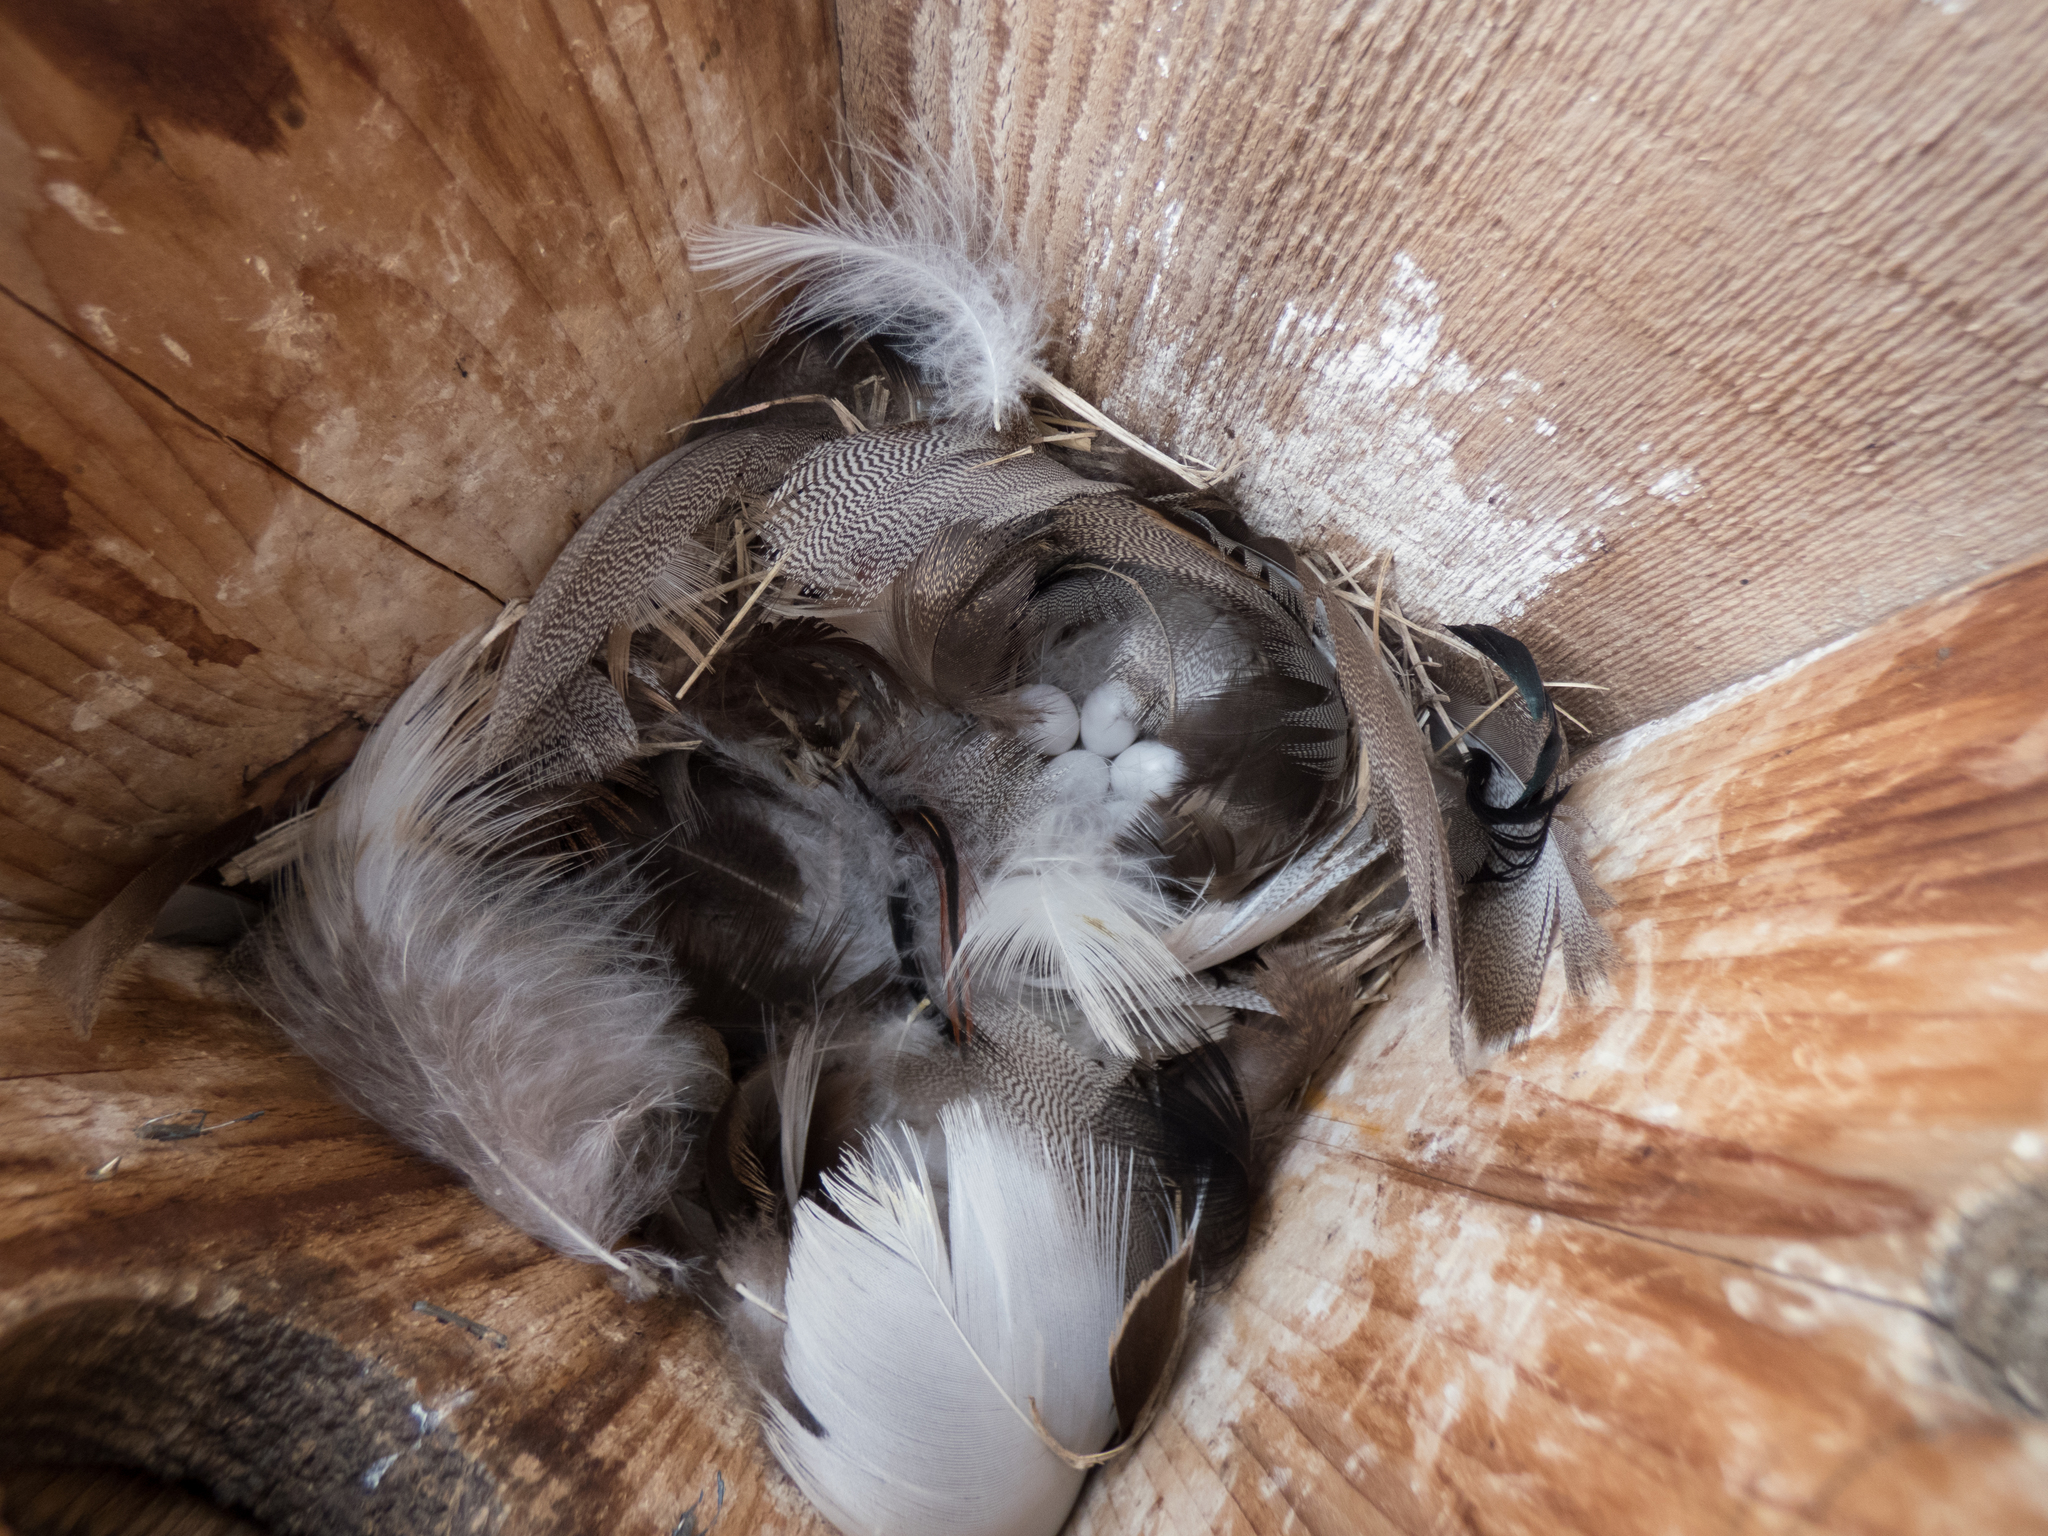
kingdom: Animalia
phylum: Chordata
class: Aves
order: Passeriformes
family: Hirundinidae
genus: Tachycineta
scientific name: Tachycineta bicolor
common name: Tree swallow
